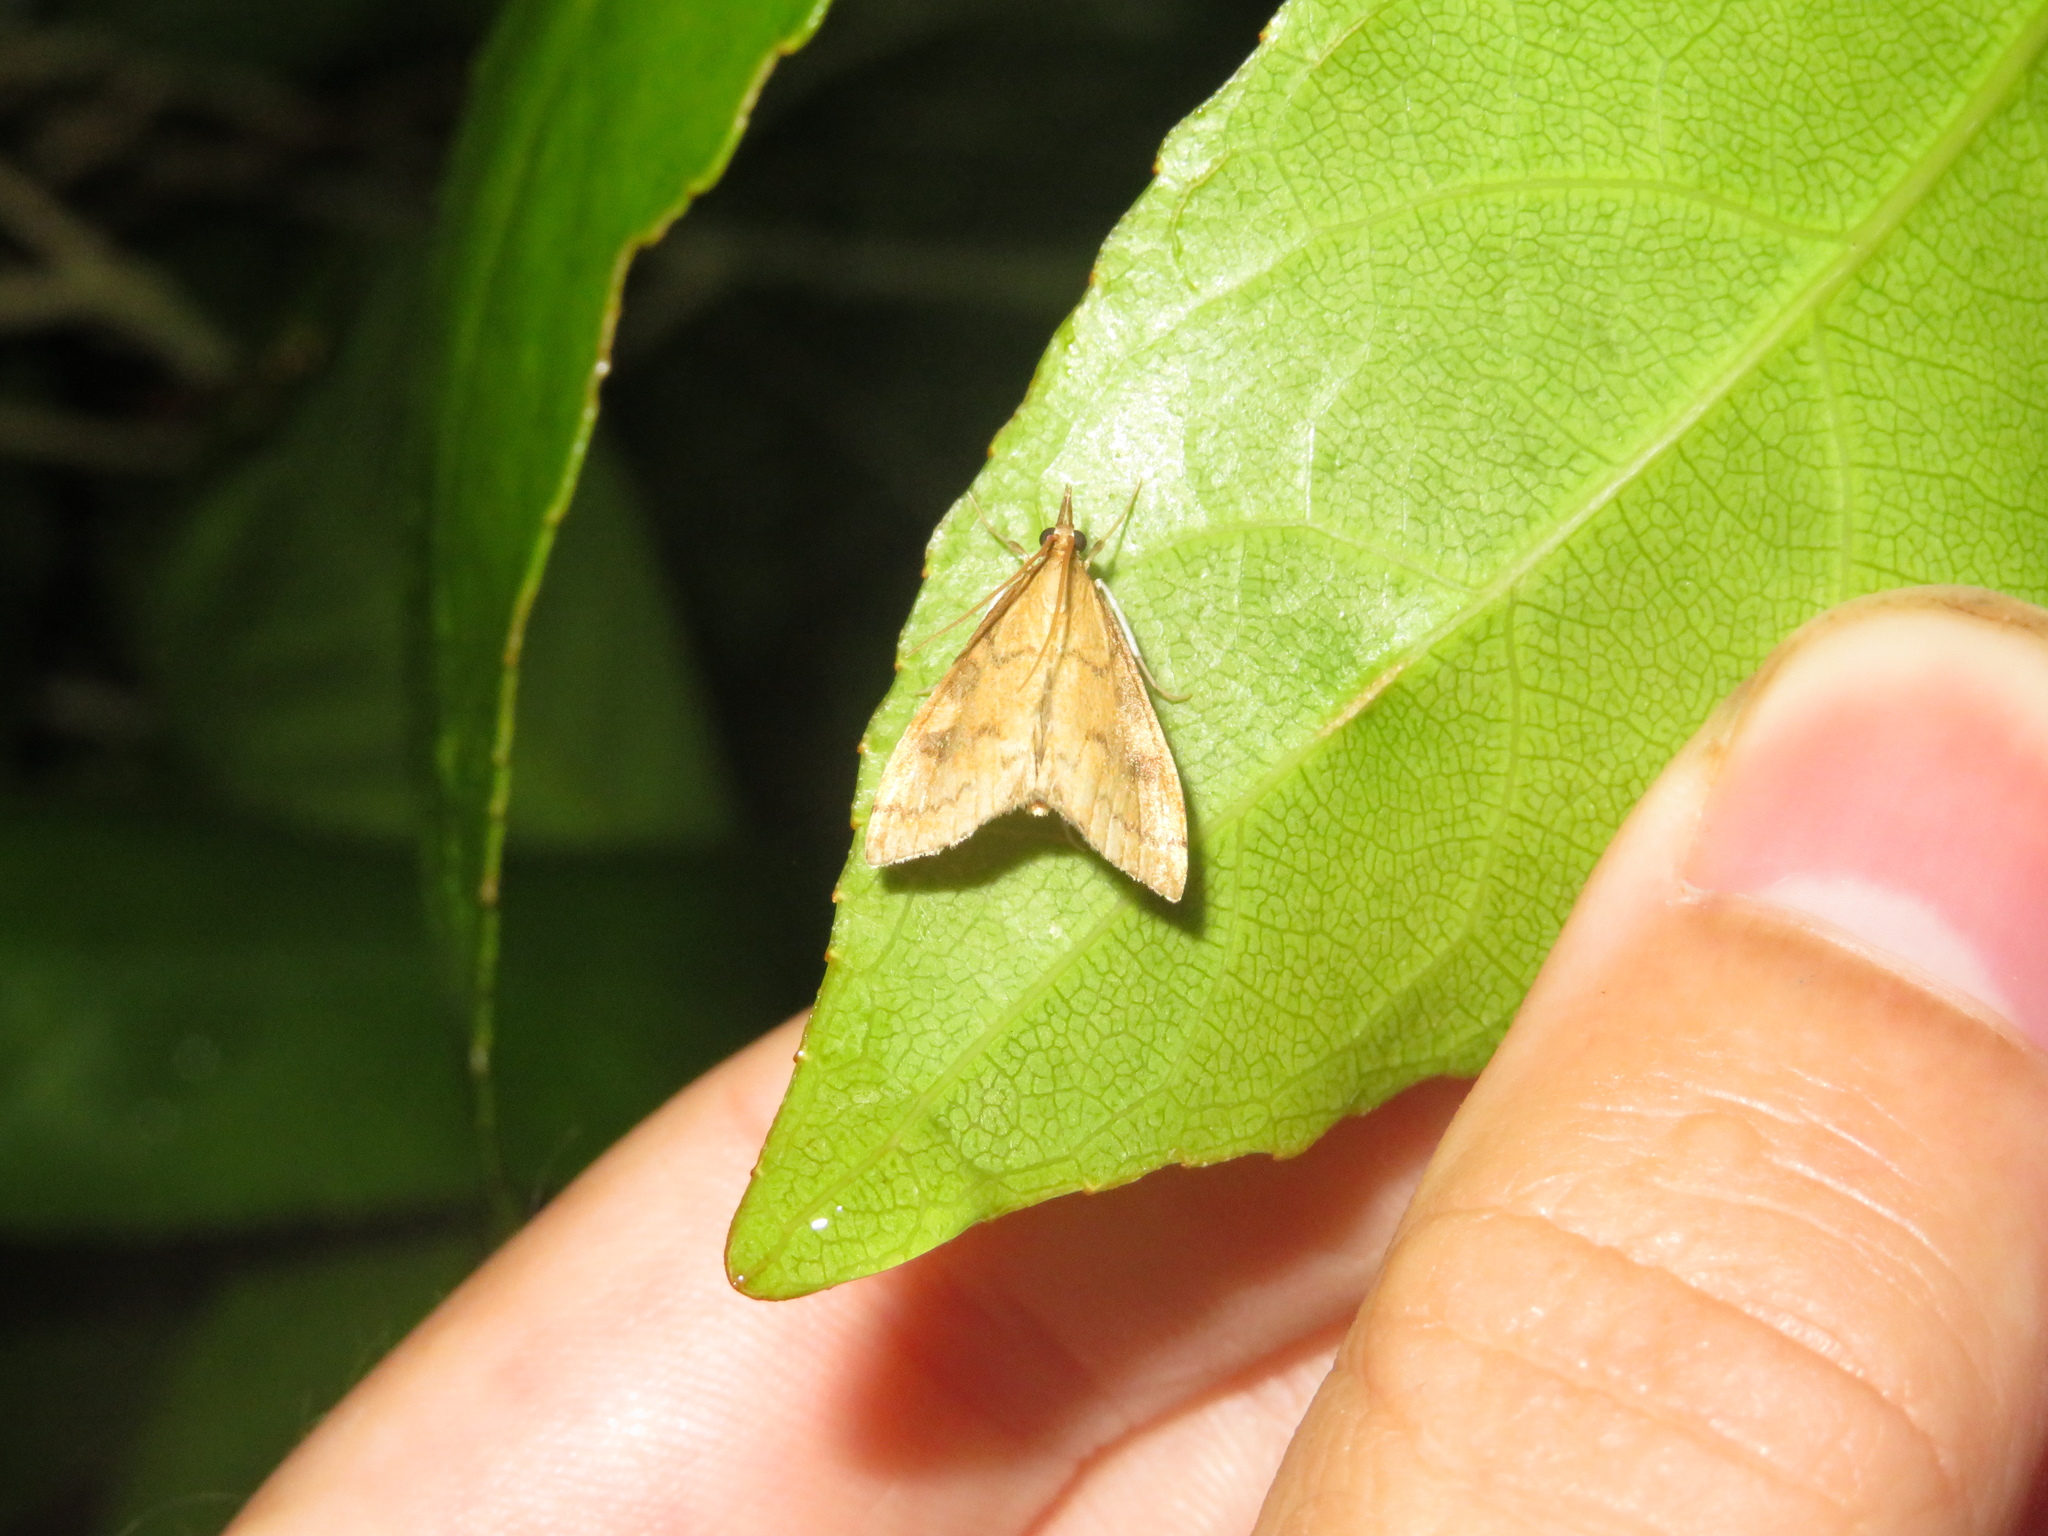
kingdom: Animalia
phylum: Arthropoda
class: Insecta
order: Lepidoptera
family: Crambidae
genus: Udea
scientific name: Udea Mnesictena flavidalis
